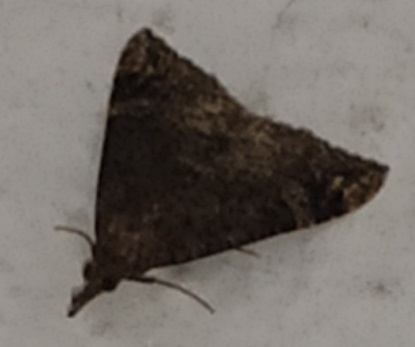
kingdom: Animalia
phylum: Arthropoda
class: Insecta
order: Lepidoptera
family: Erebidae
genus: Hypena
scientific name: Hypena obsitalis
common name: Bloxworth snout
